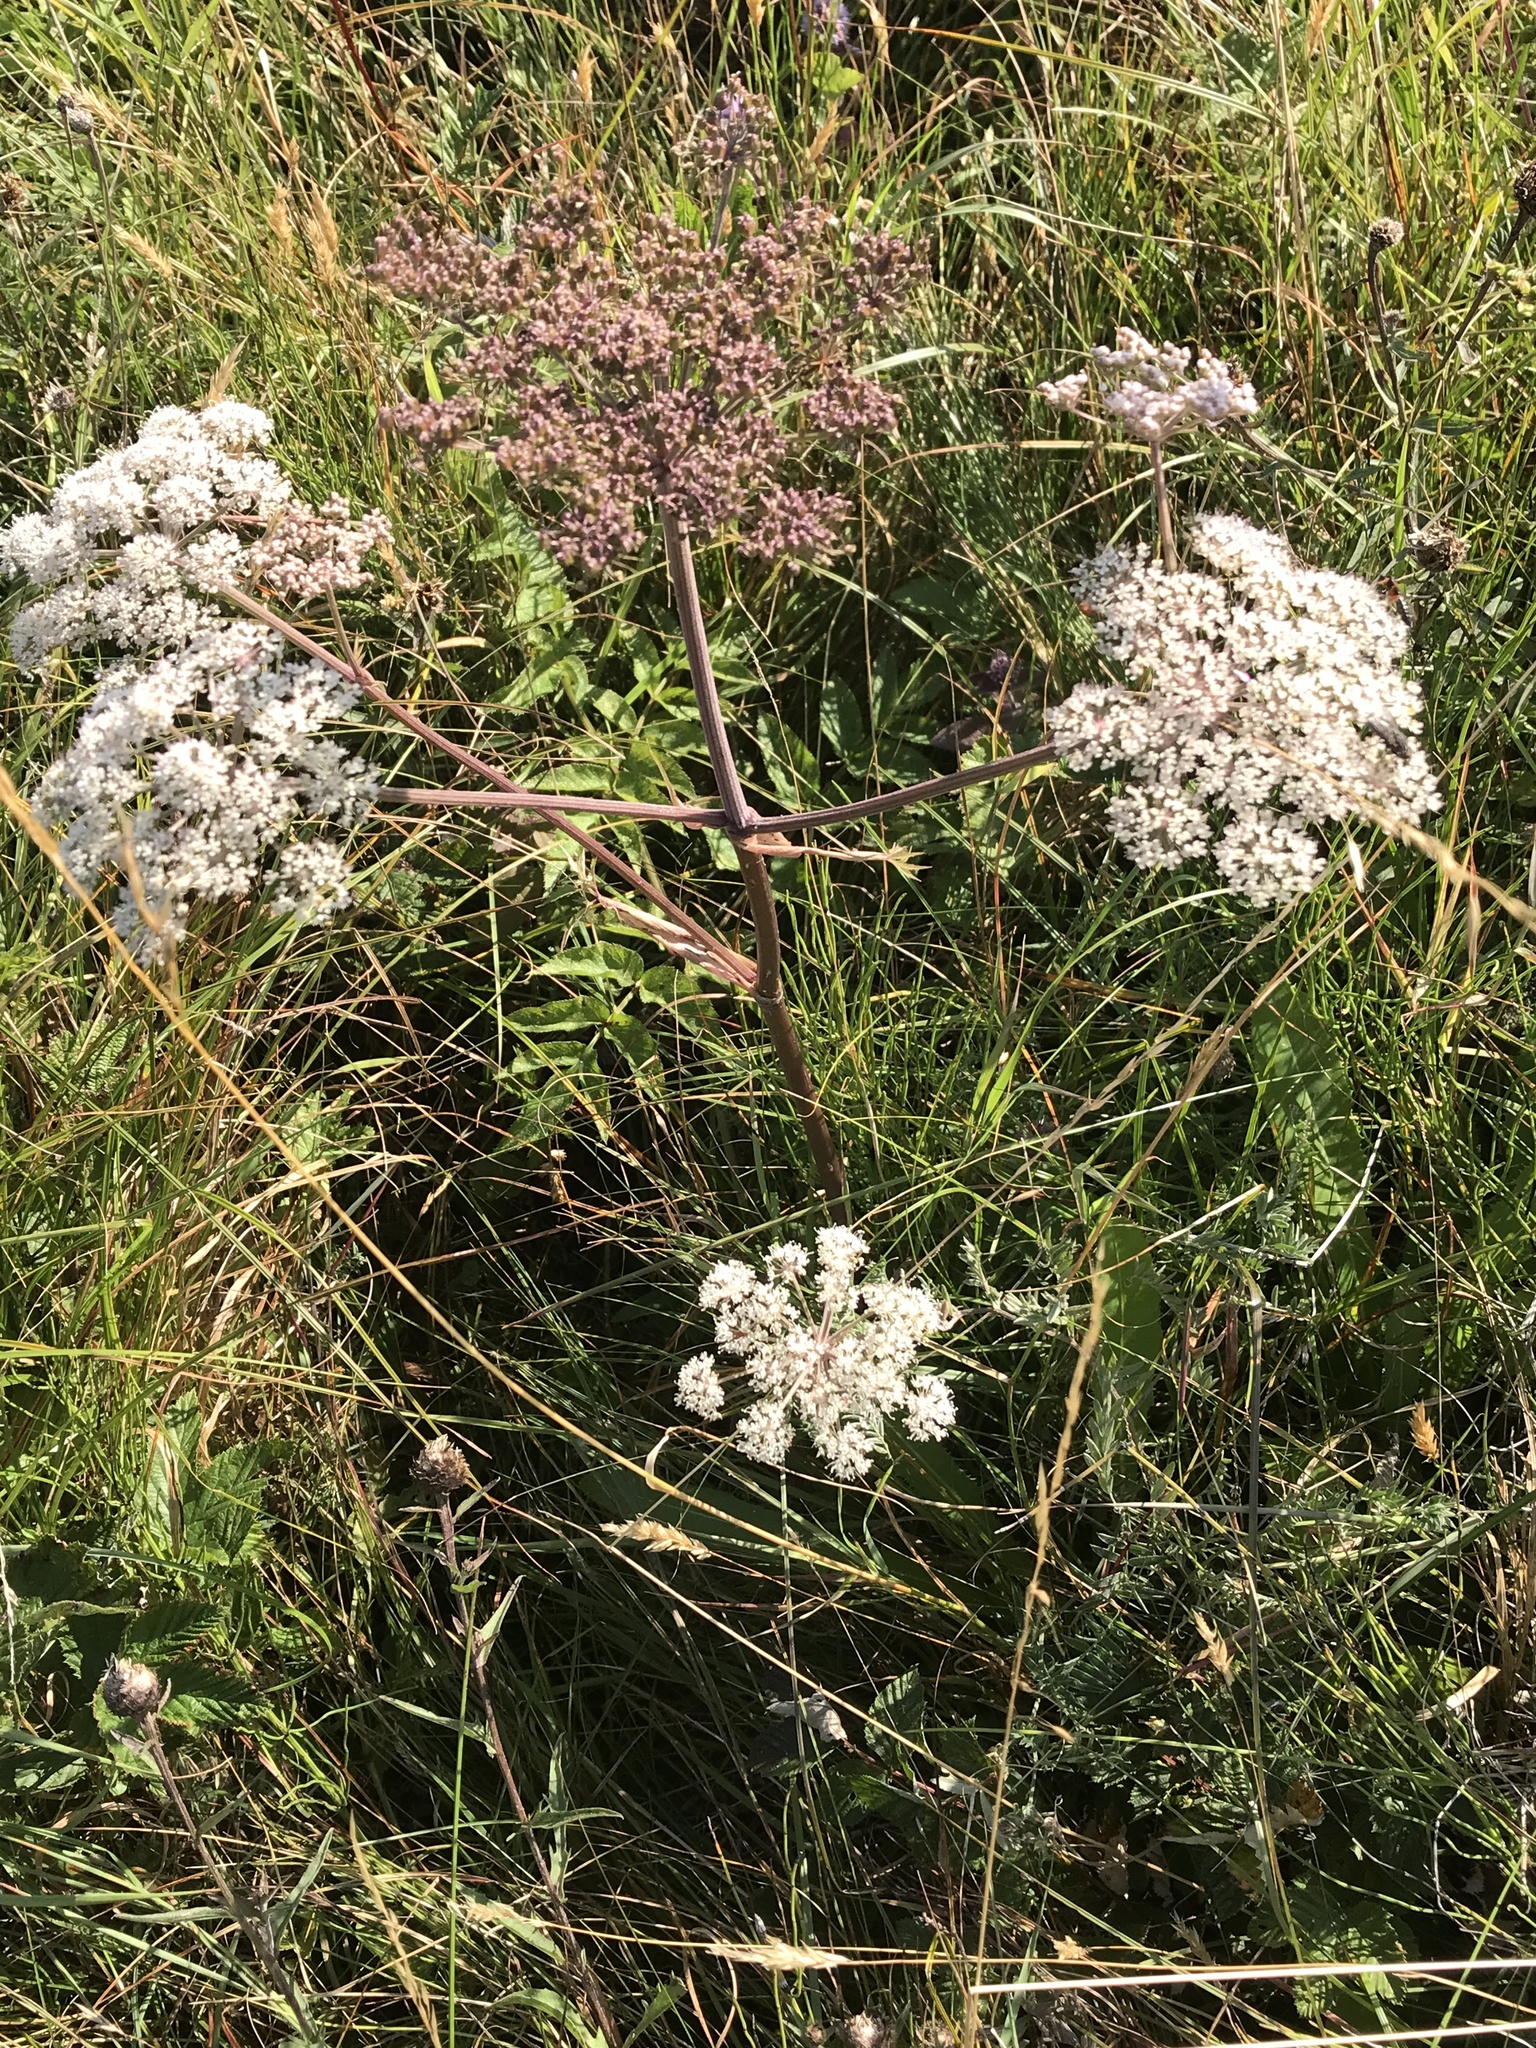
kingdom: Plantae
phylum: Tracheophyta
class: Magnoliopsida
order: Apiales
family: Apiaceae
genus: Angelica
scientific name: Angelica sylvestris
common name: Wild angelica
